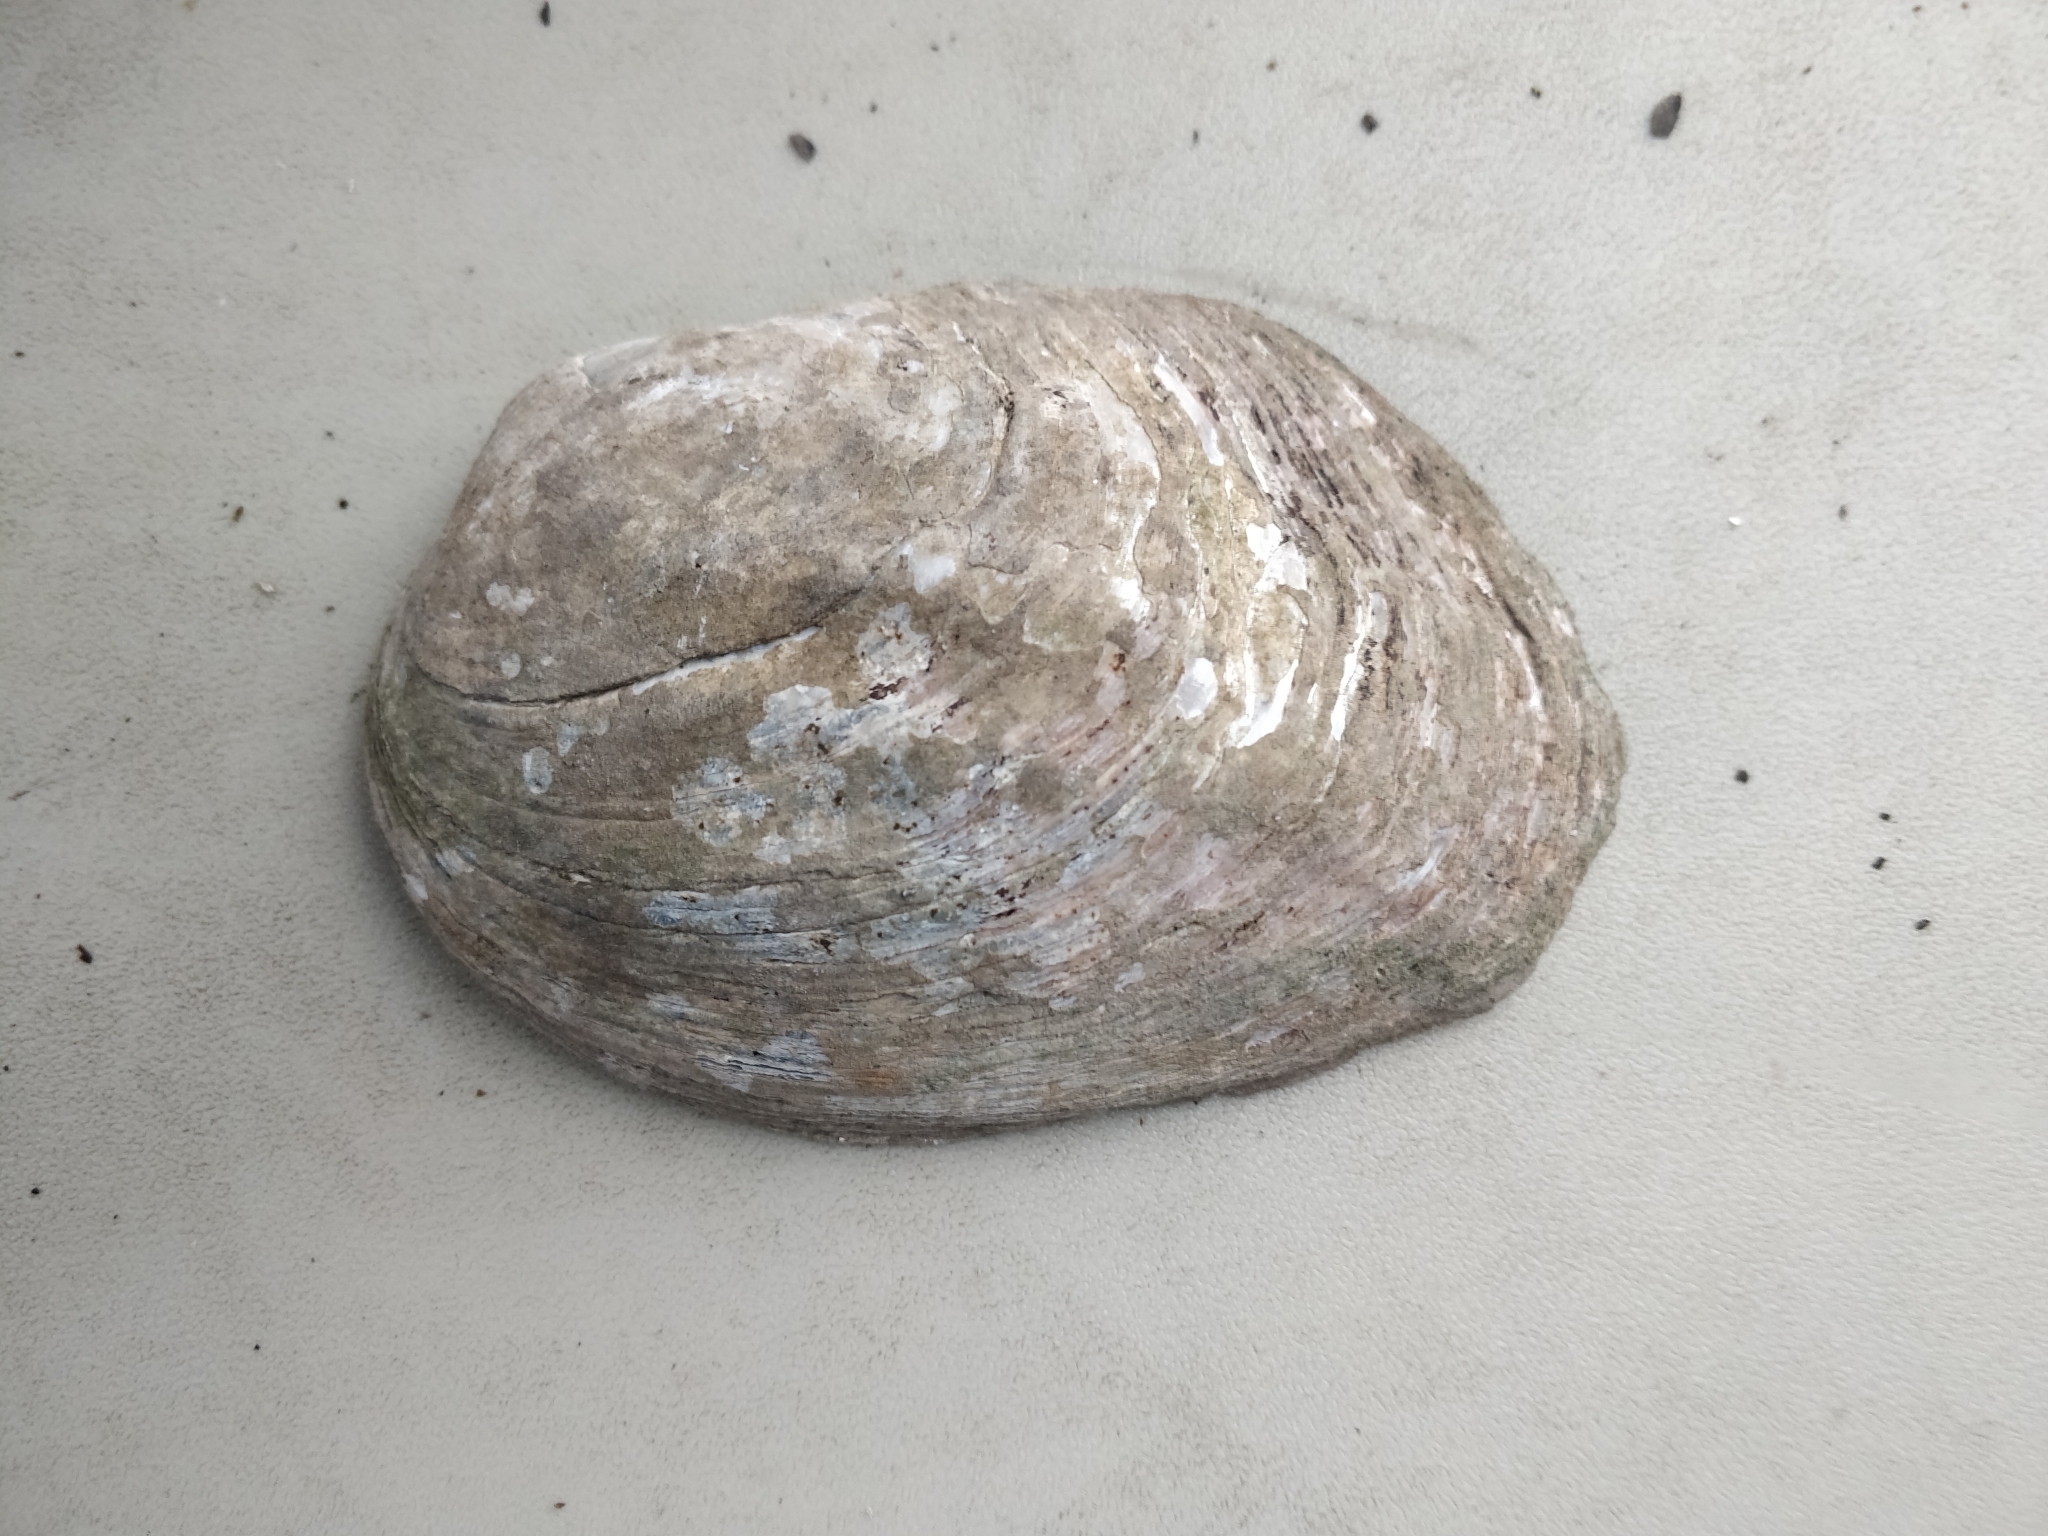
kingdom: Animalia
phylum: Mollusca
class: Bivalvia
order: Unionida
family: Unionidae
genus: Amblema
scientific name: Amblema plicata
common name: Threeridge
